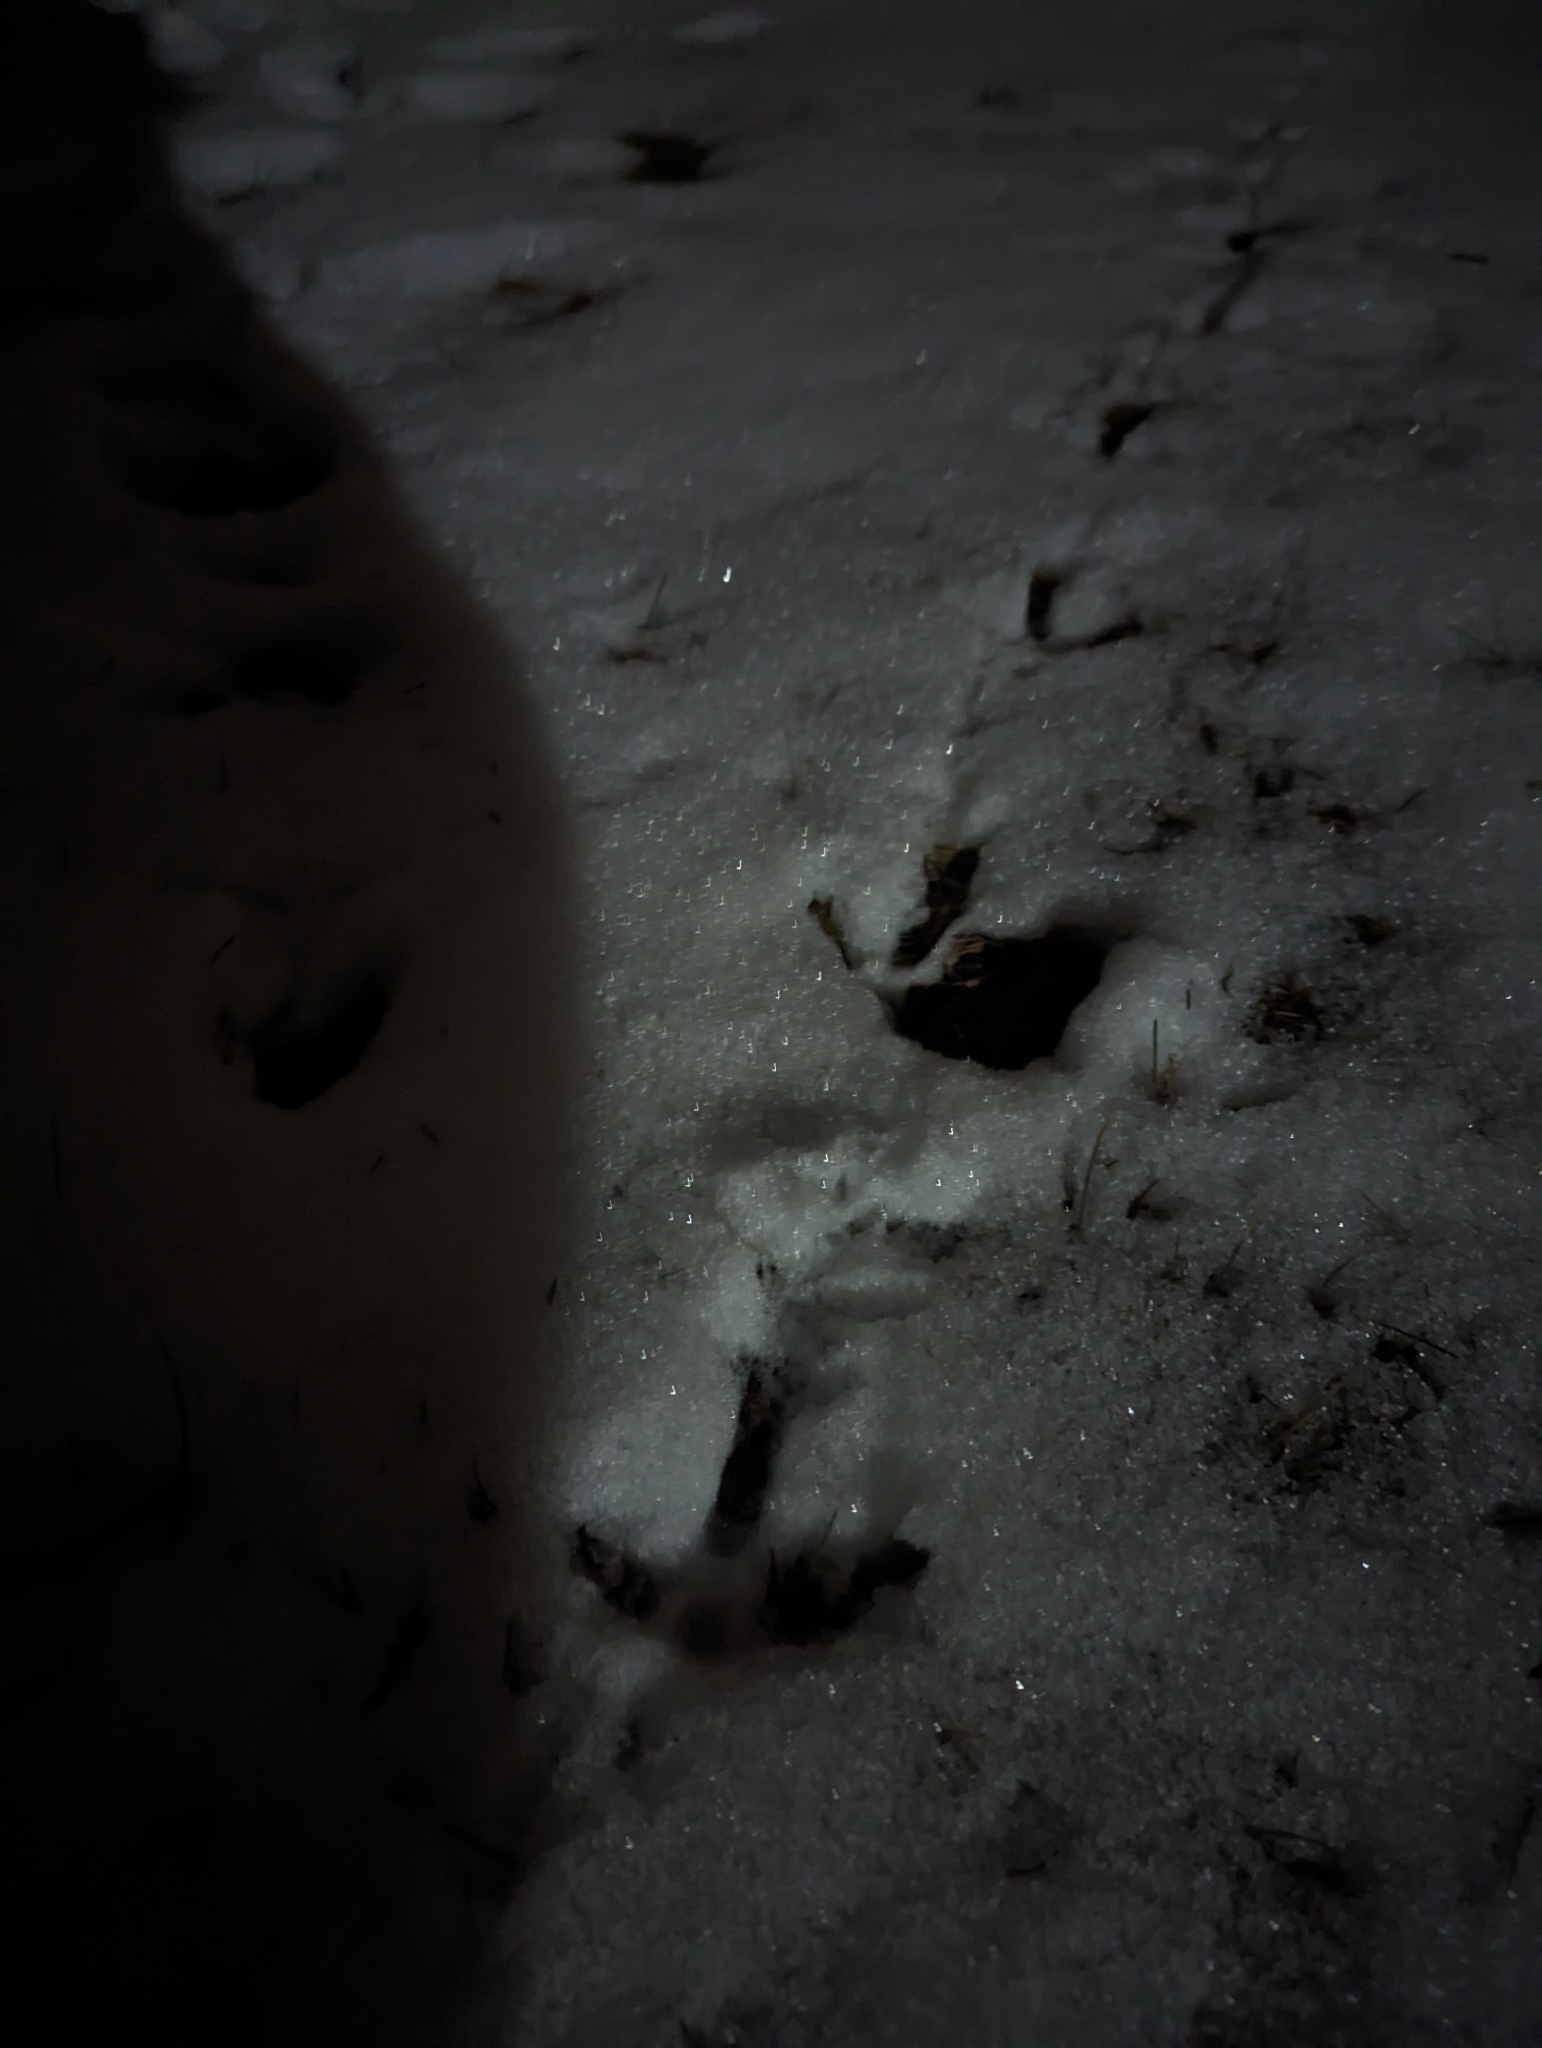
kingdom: Animalia
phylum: Chordata
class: Aves
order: Galliformes
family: Phasianidae
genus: Meleagris
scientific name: Meleagris gallopavo
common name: Wild turkey
